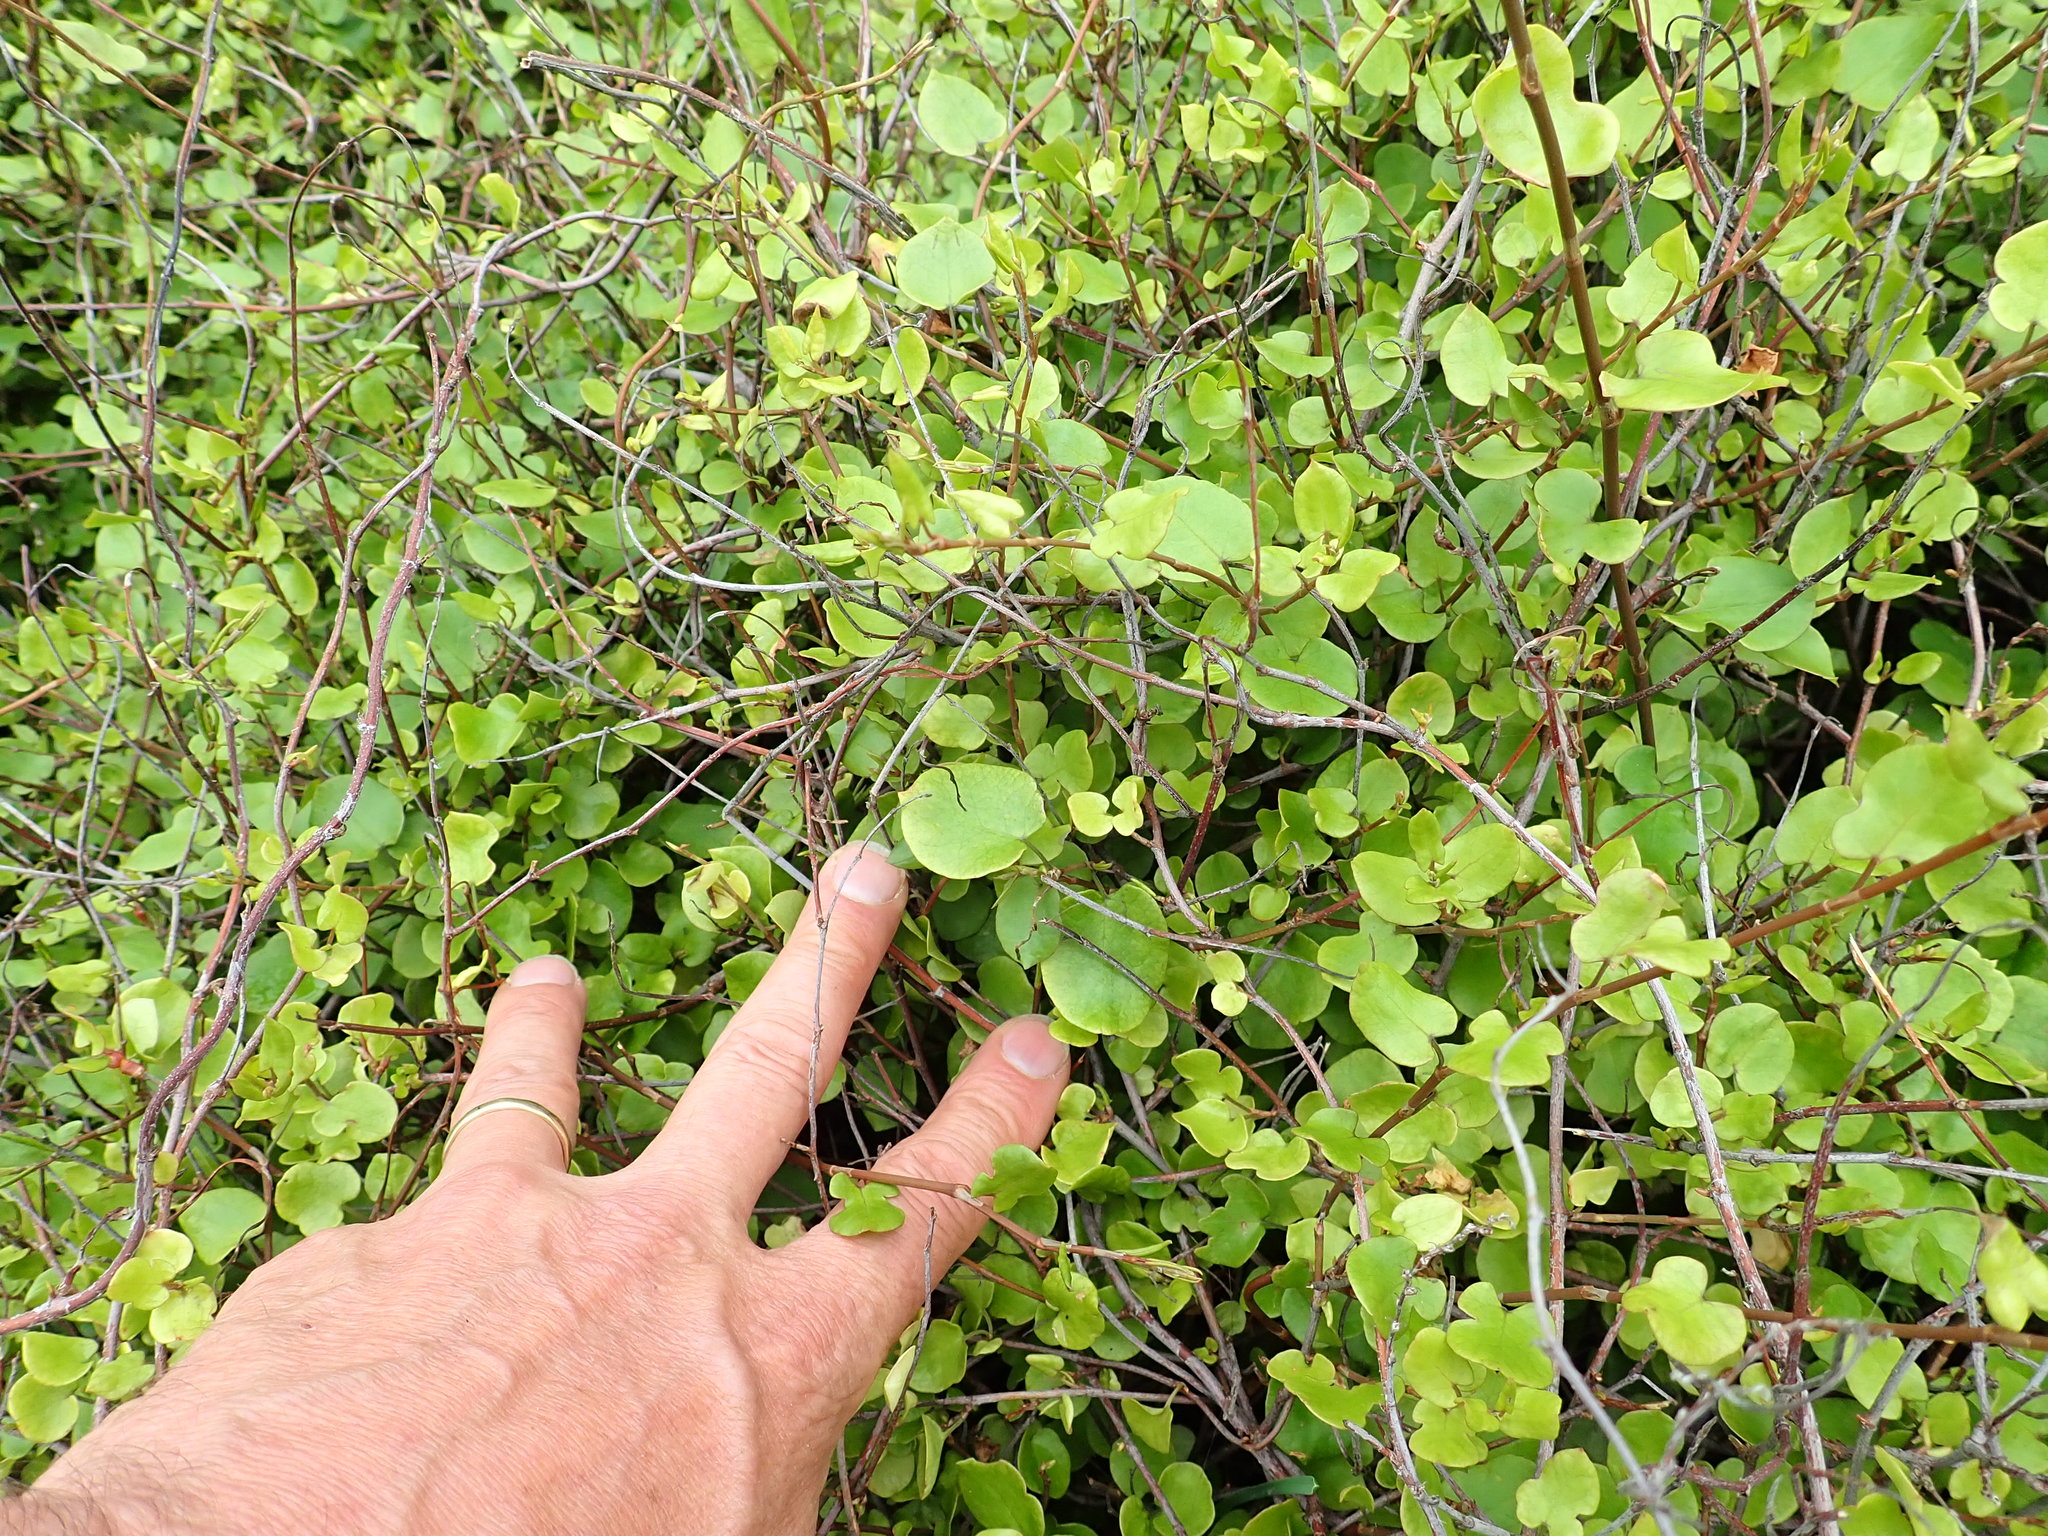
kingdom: Plantae
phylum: Tracheophyta
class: Magnoliopsida
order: Caryophyllales
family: Polygonaceae
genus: Muehlenbeckia
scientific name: Muehlenbeckia
